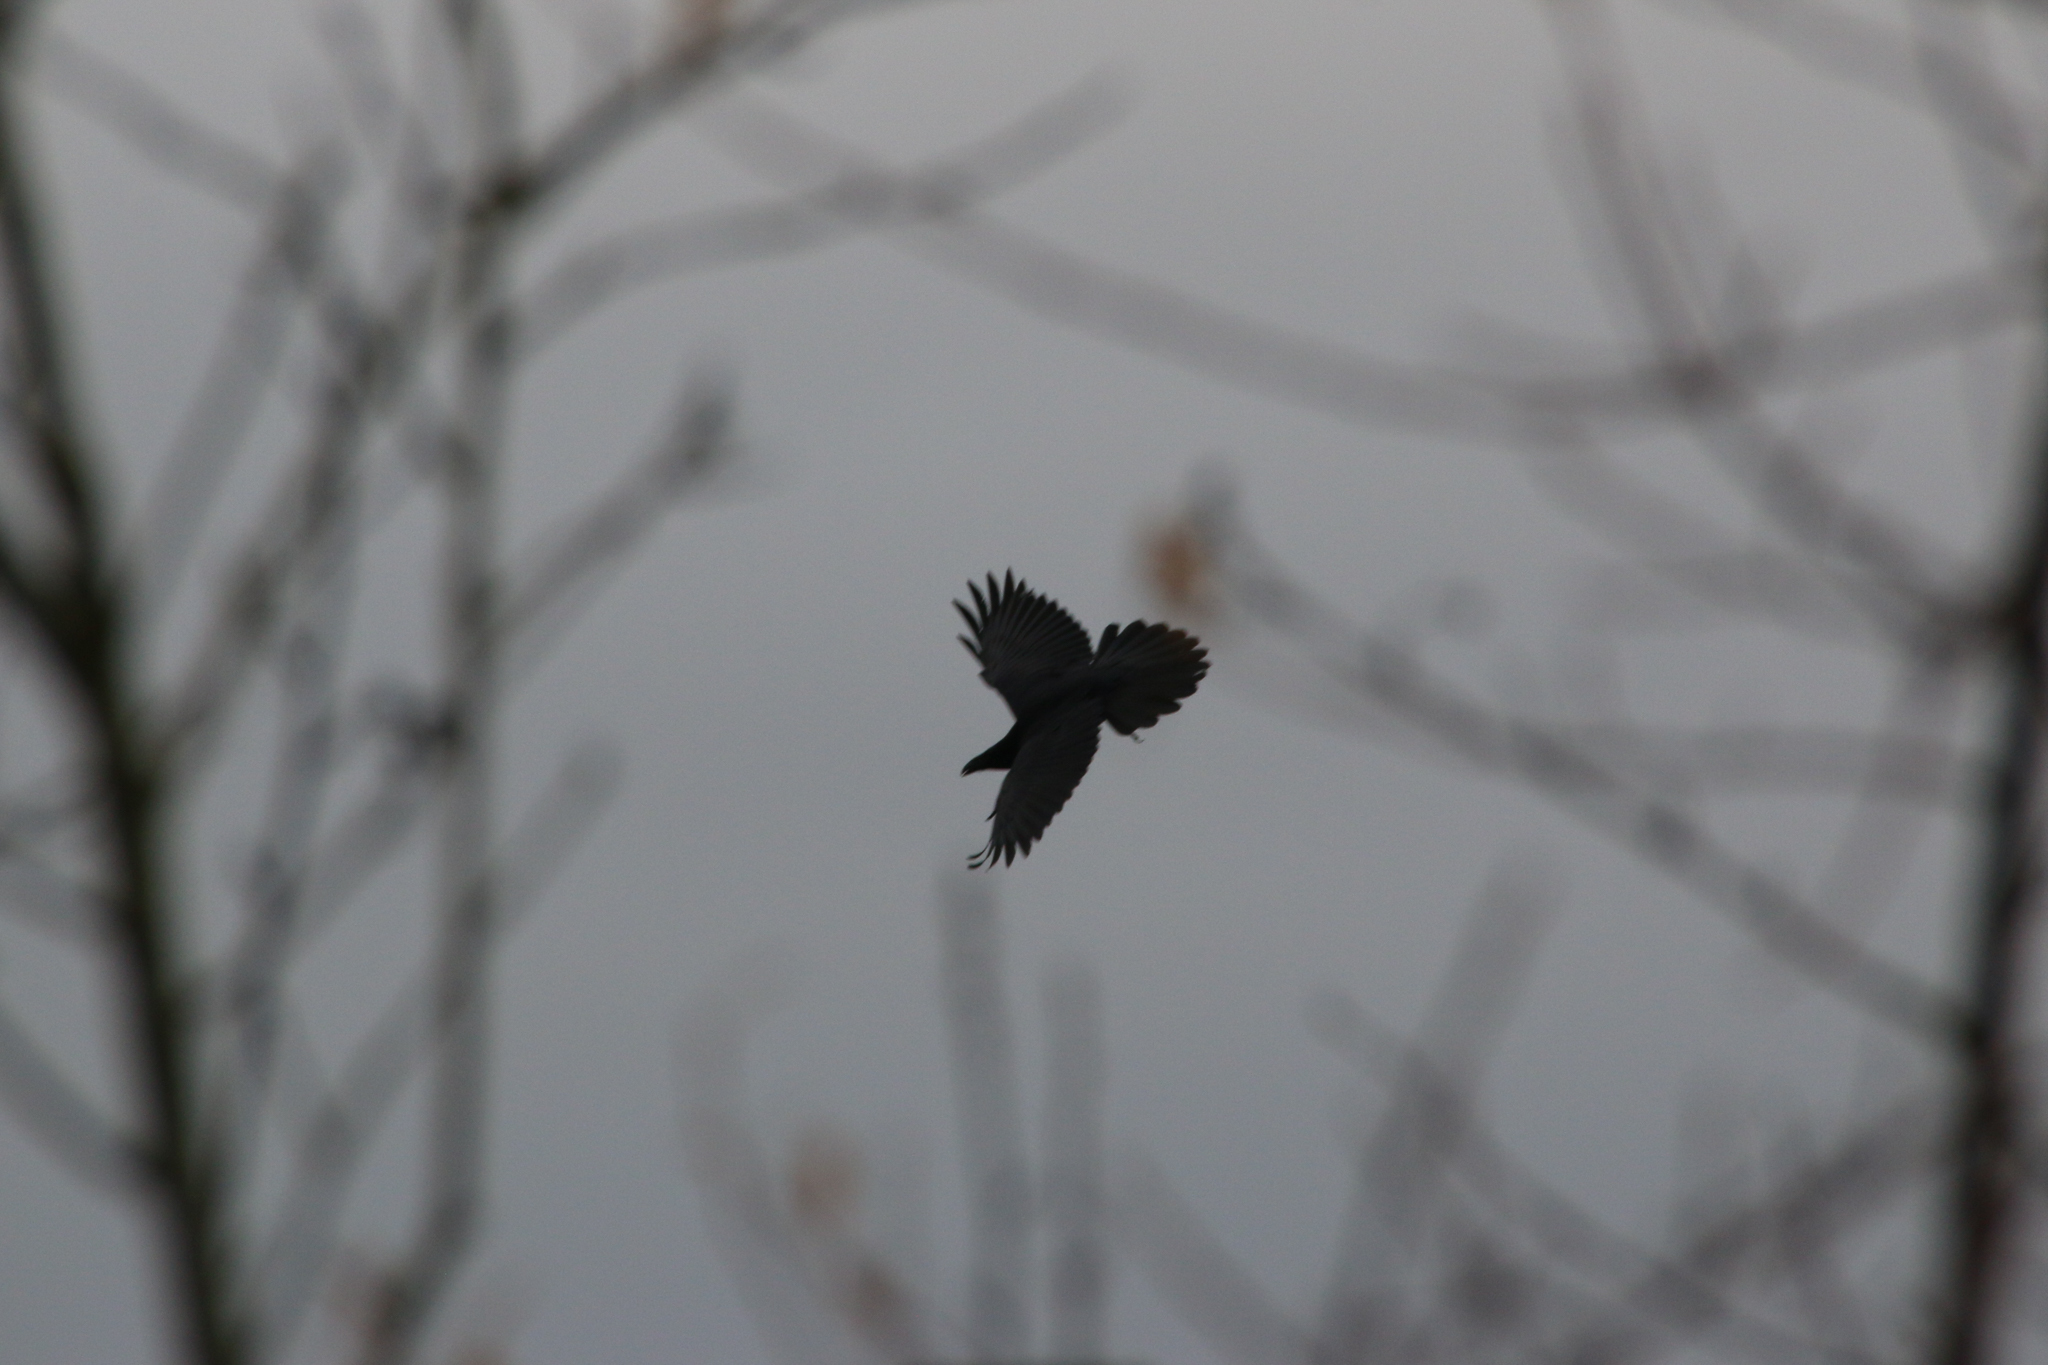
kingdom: Animalia
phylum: Chordata
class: Aves
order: Passeriformes
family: Corvidae
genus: Corvus
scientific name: Corvus corax
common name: Common raven
